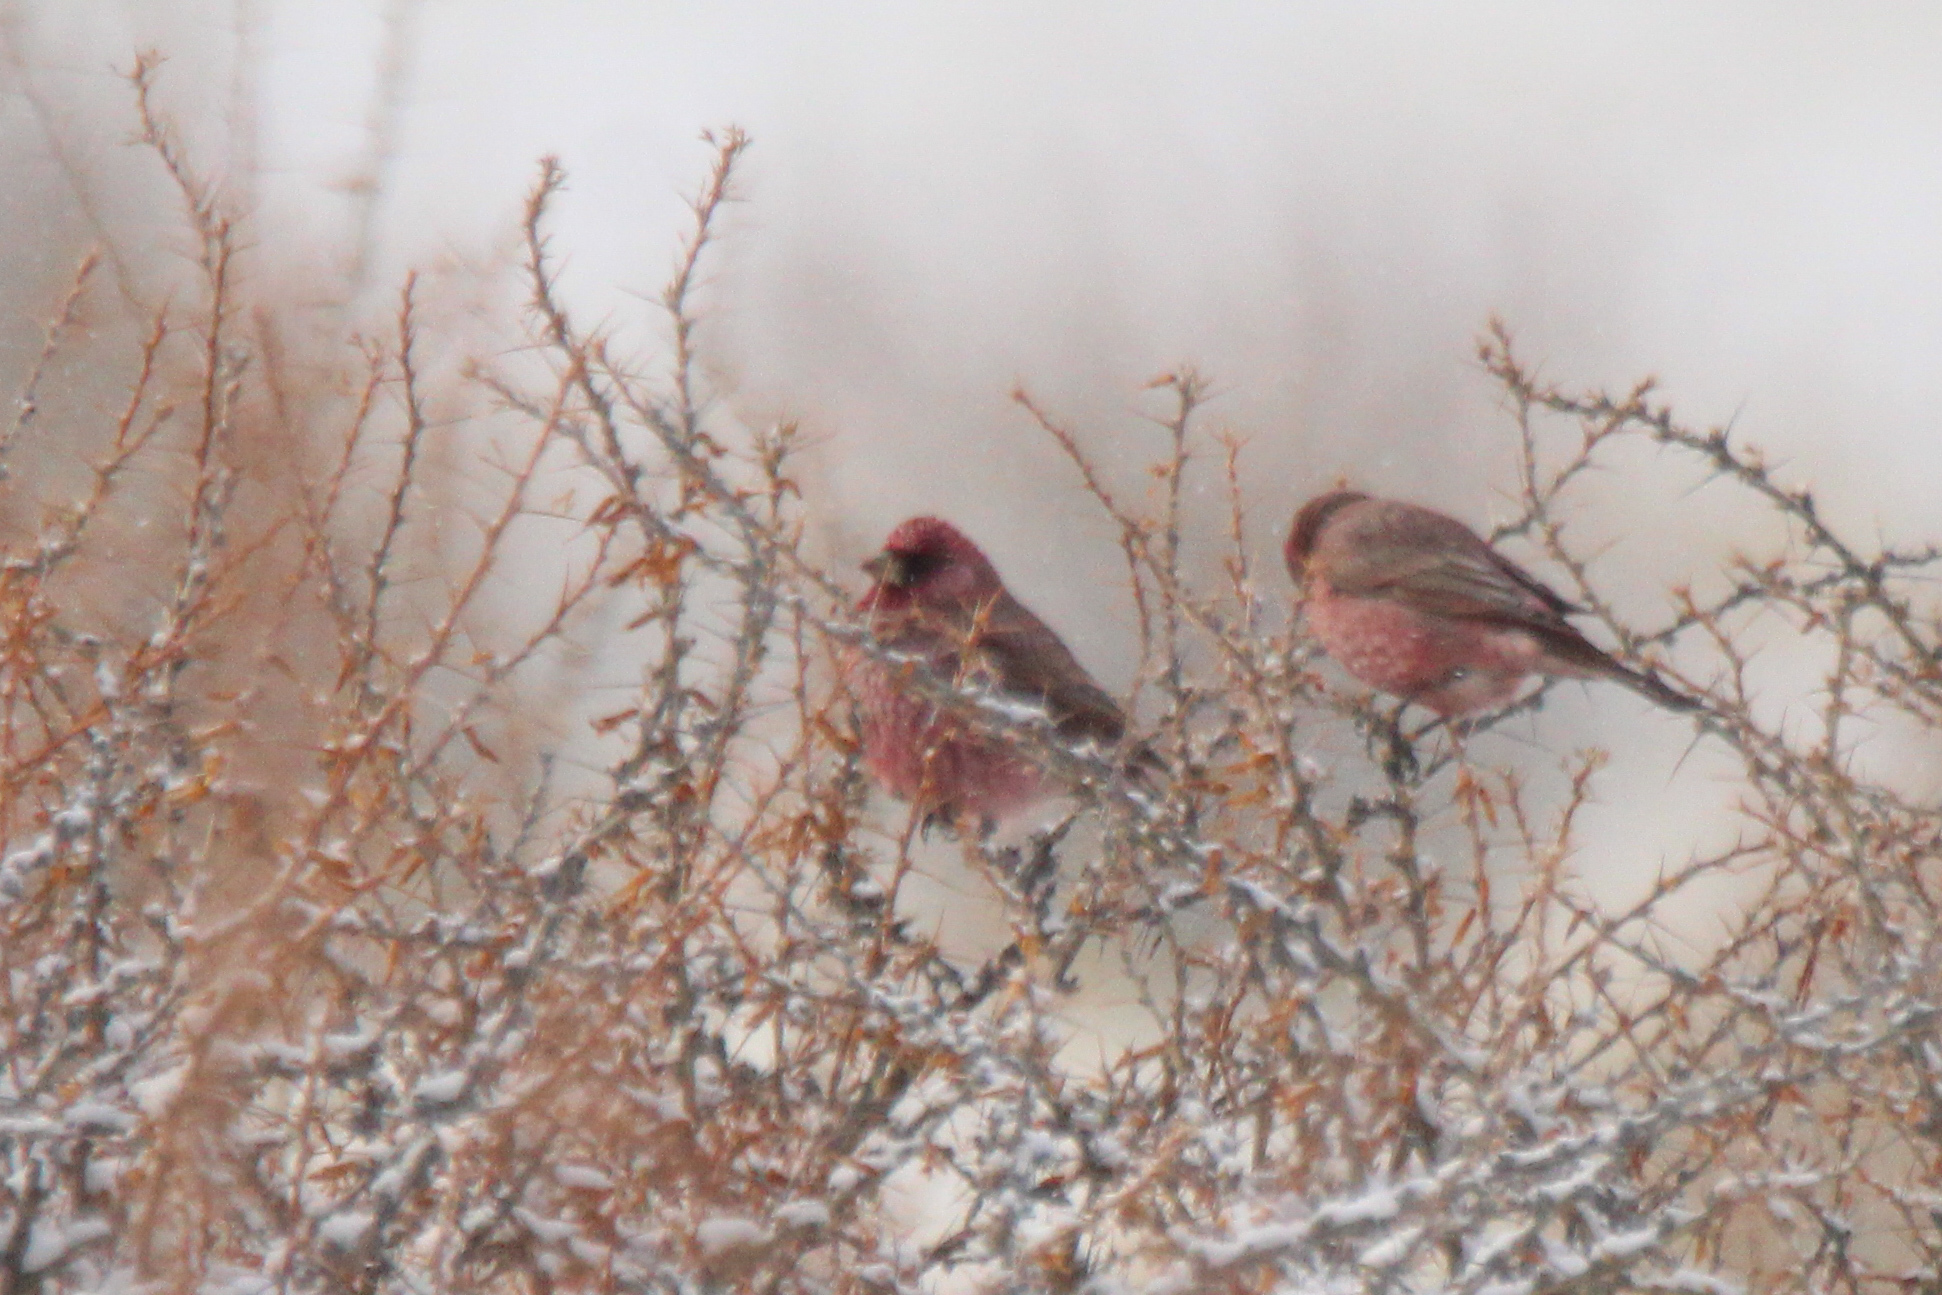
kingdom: Animalia
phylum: Chordata
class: Aves
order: Passeriformes
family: Fringillidae
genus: Carpodacus
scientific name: Carpodacus rubicilla
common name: Great rosefinch
